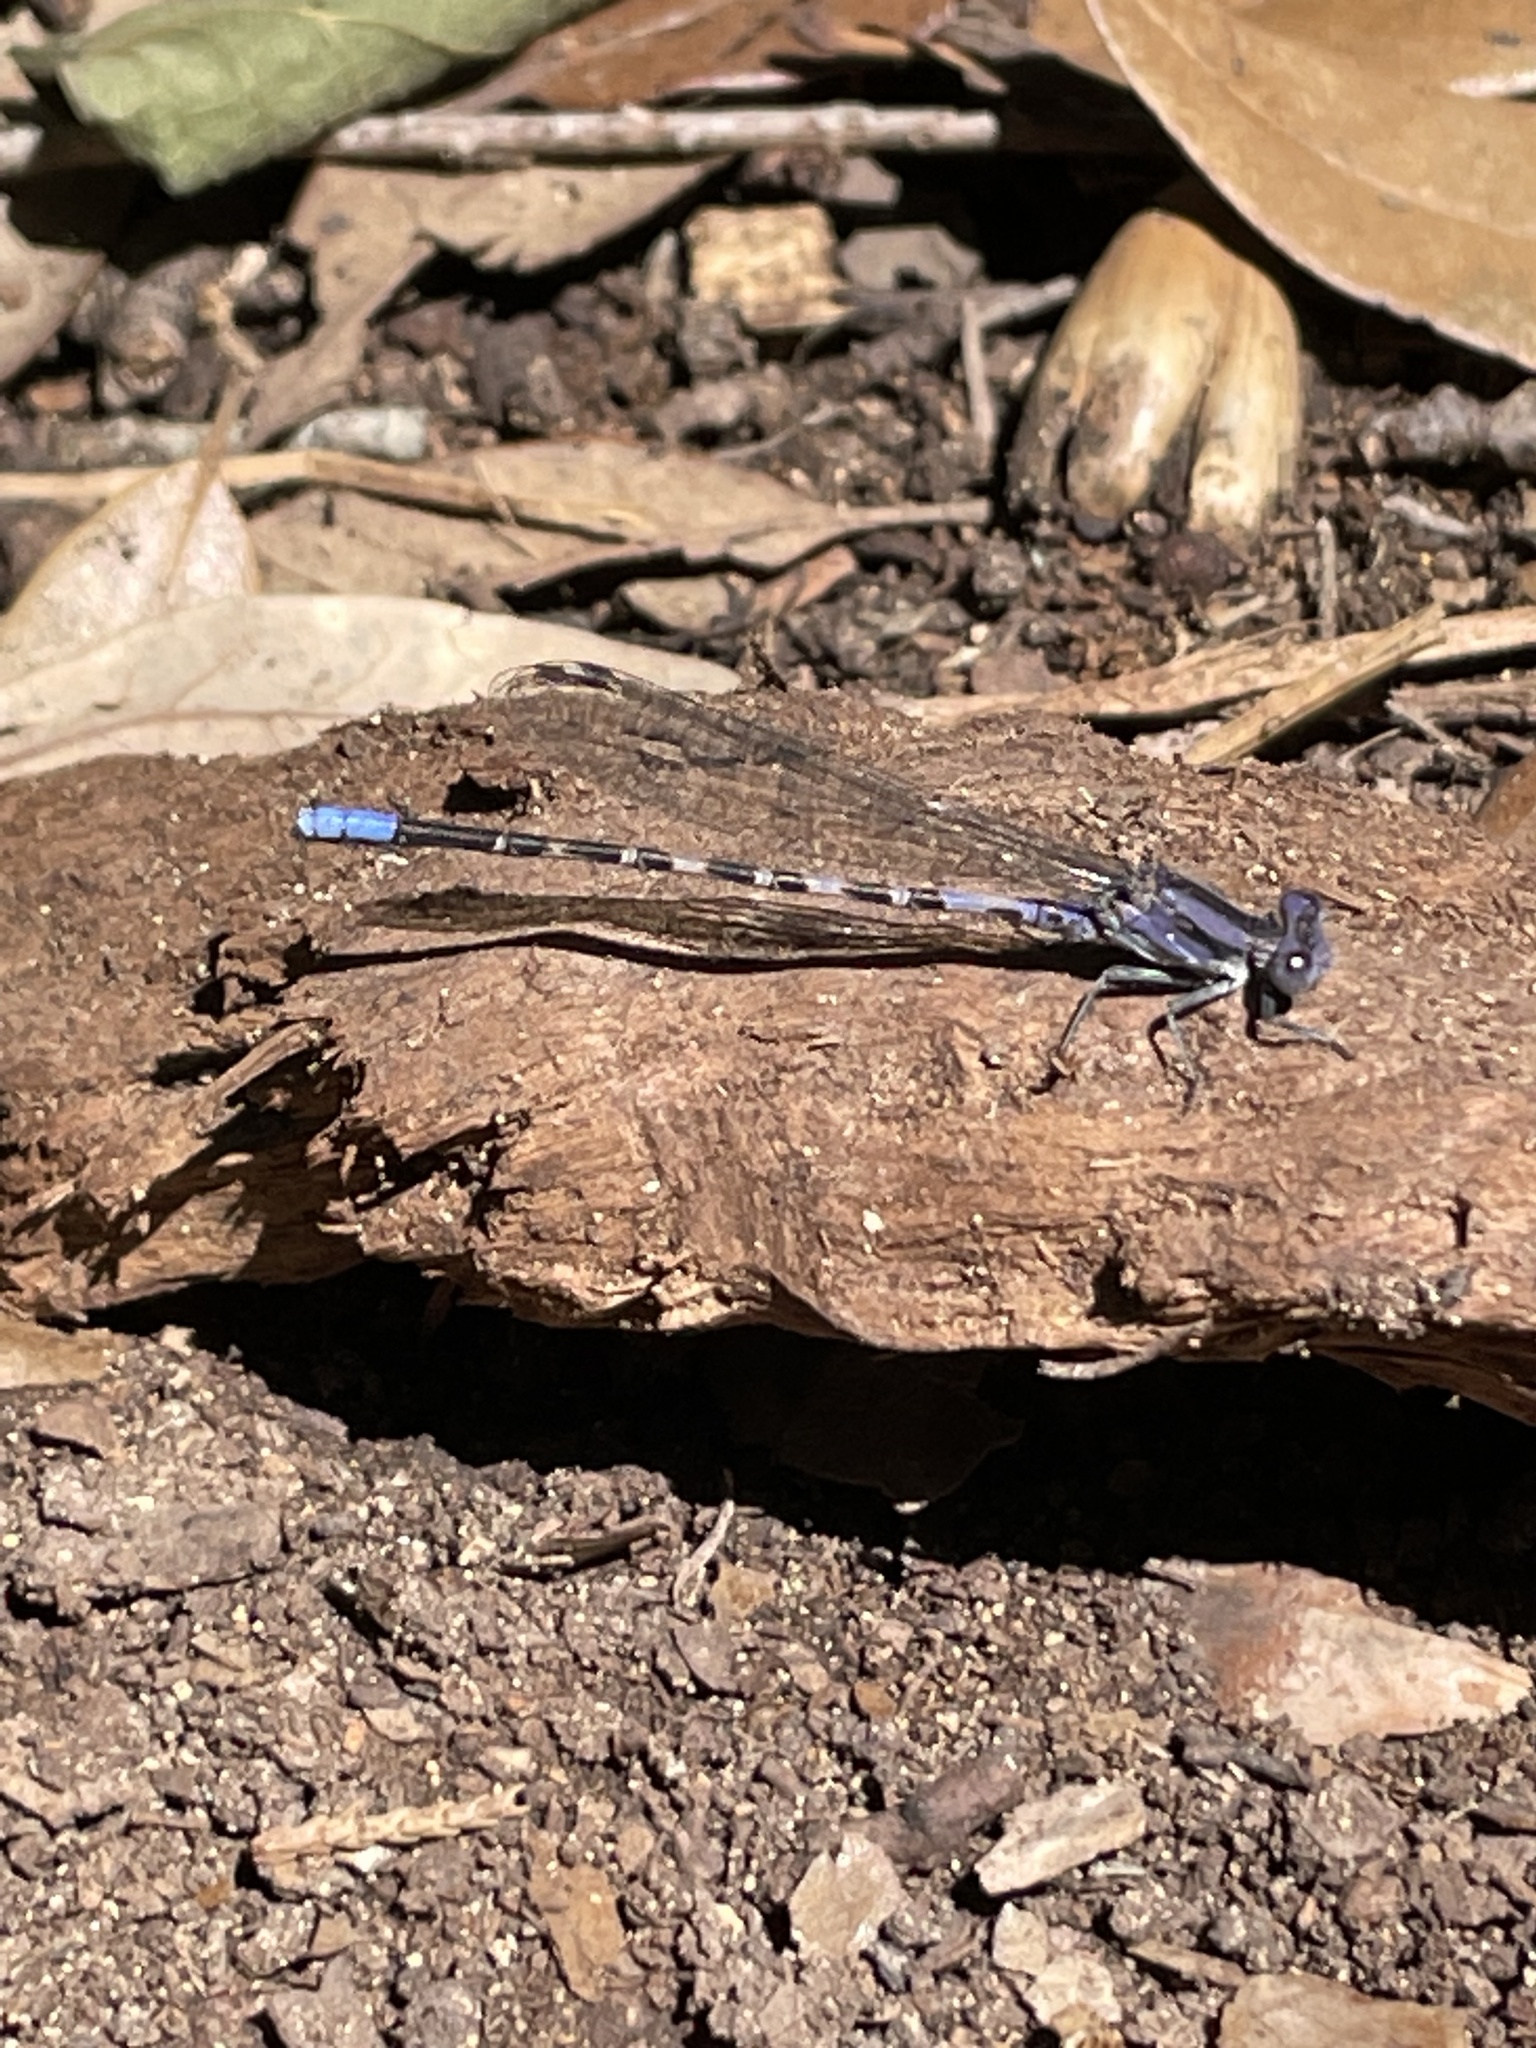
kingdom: Animalia
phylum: Arthropoda
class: Insecta
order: Odonata
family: Coenagrionidae
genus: Argia
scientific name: Argia immunda
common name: Kiowa dancer
